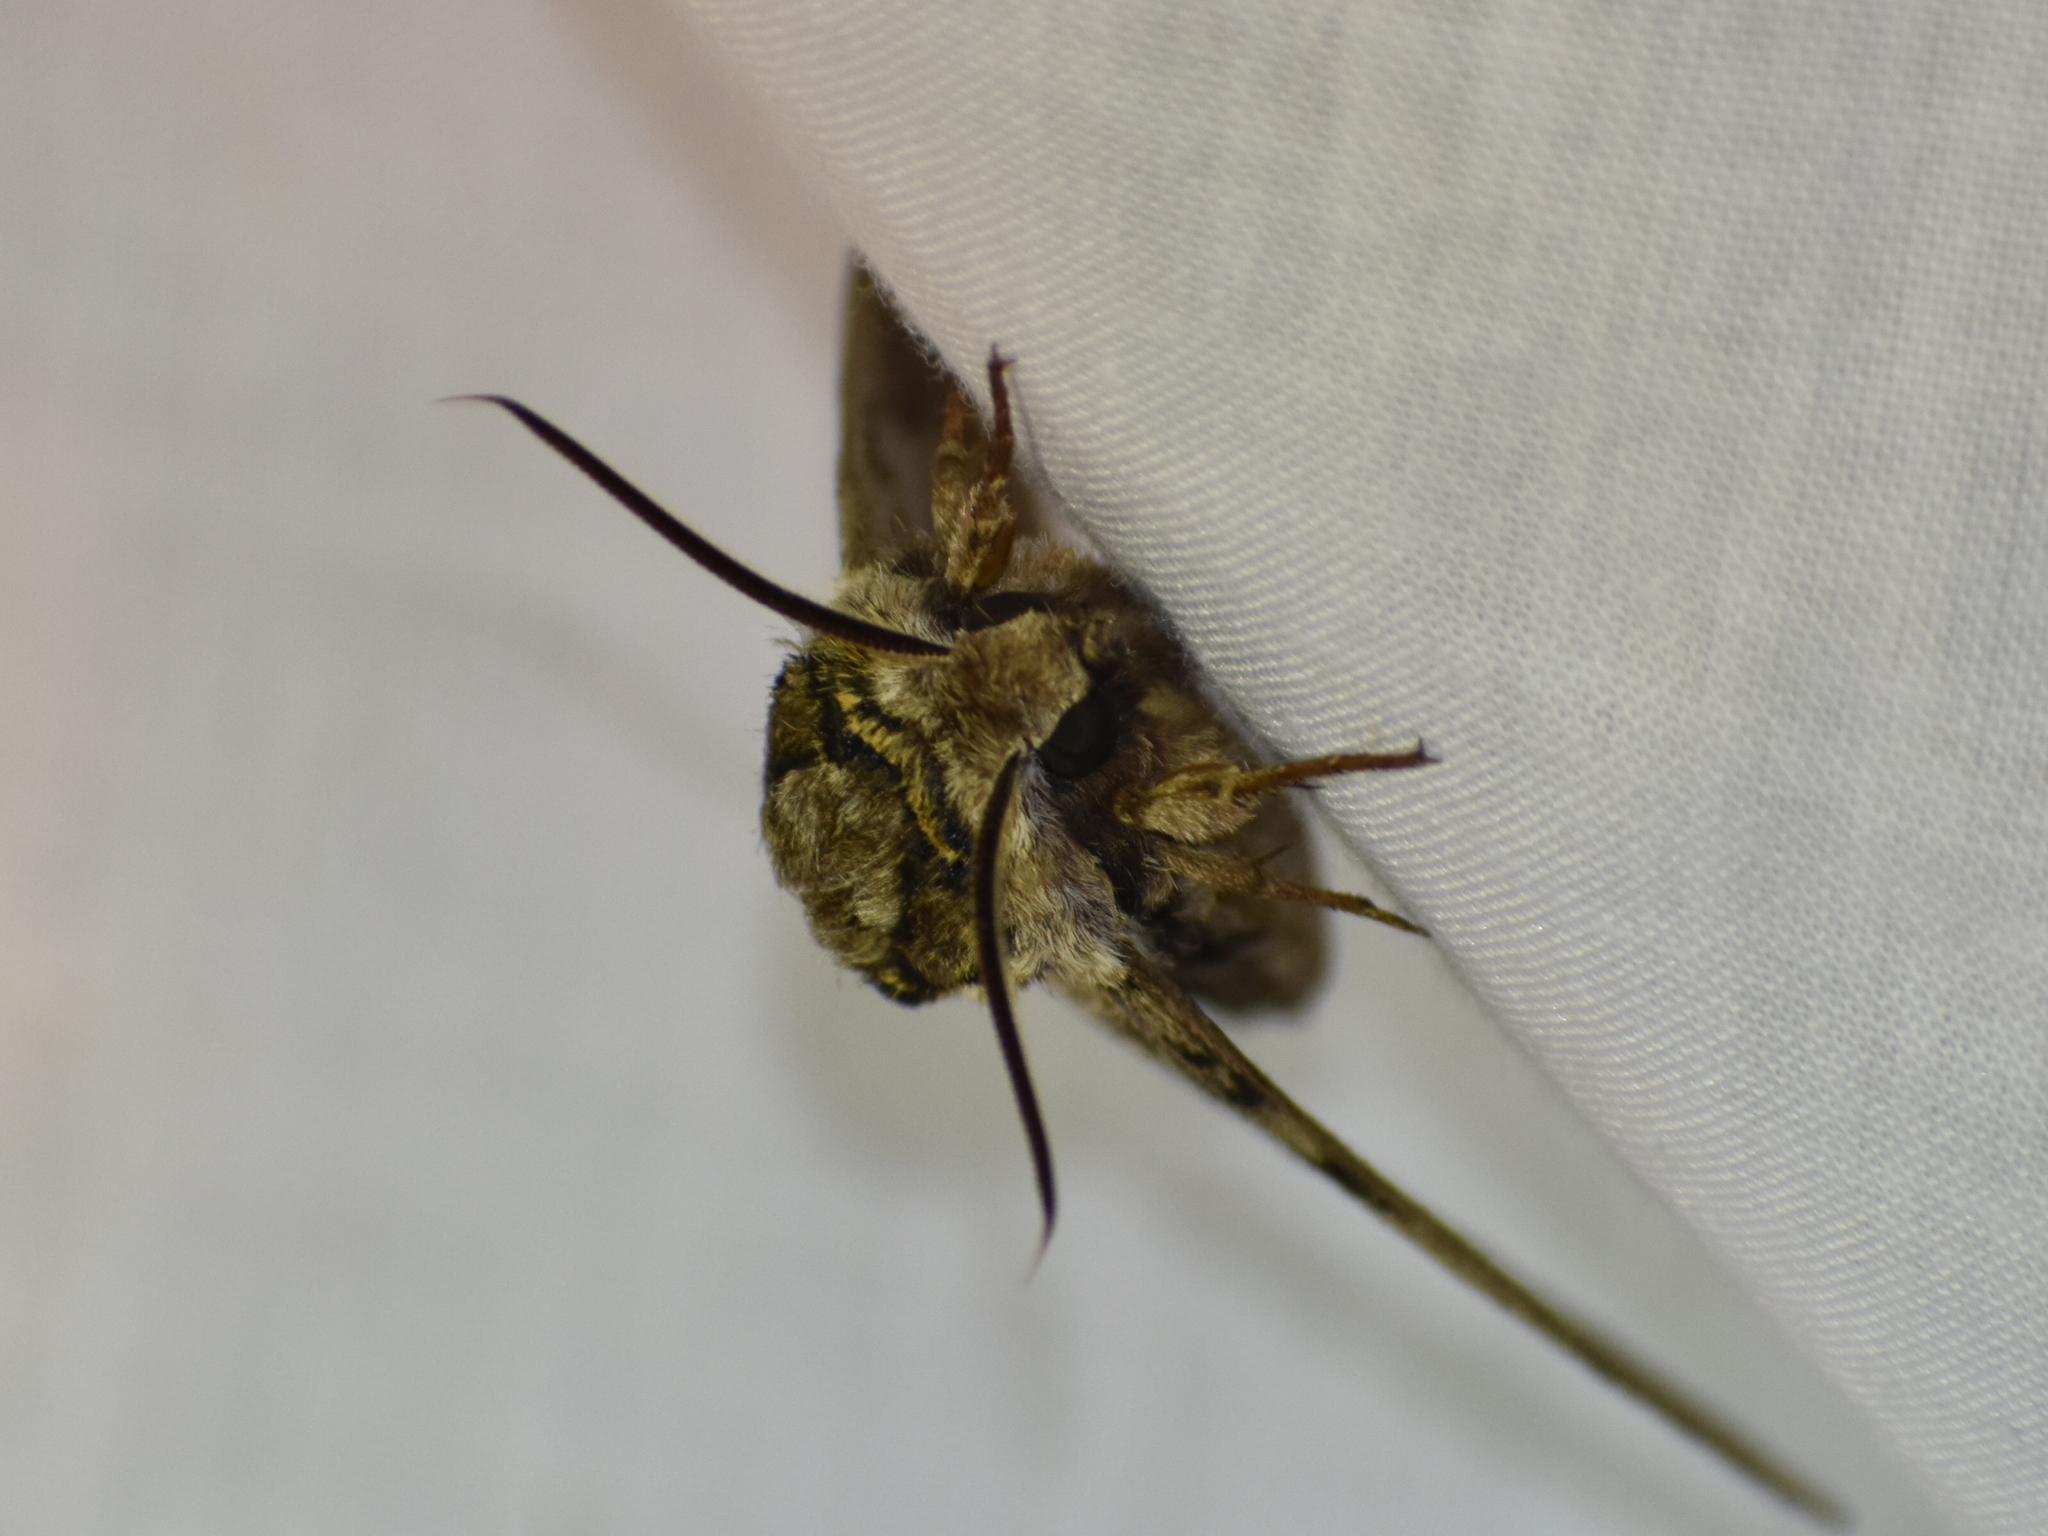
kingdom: Animalia
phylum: Arthropoda
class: Insecta
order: Lepidoptera
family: Sphingidae
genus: Ceratomia
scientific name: Ceratomia undulosa
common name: Waved sphinx
